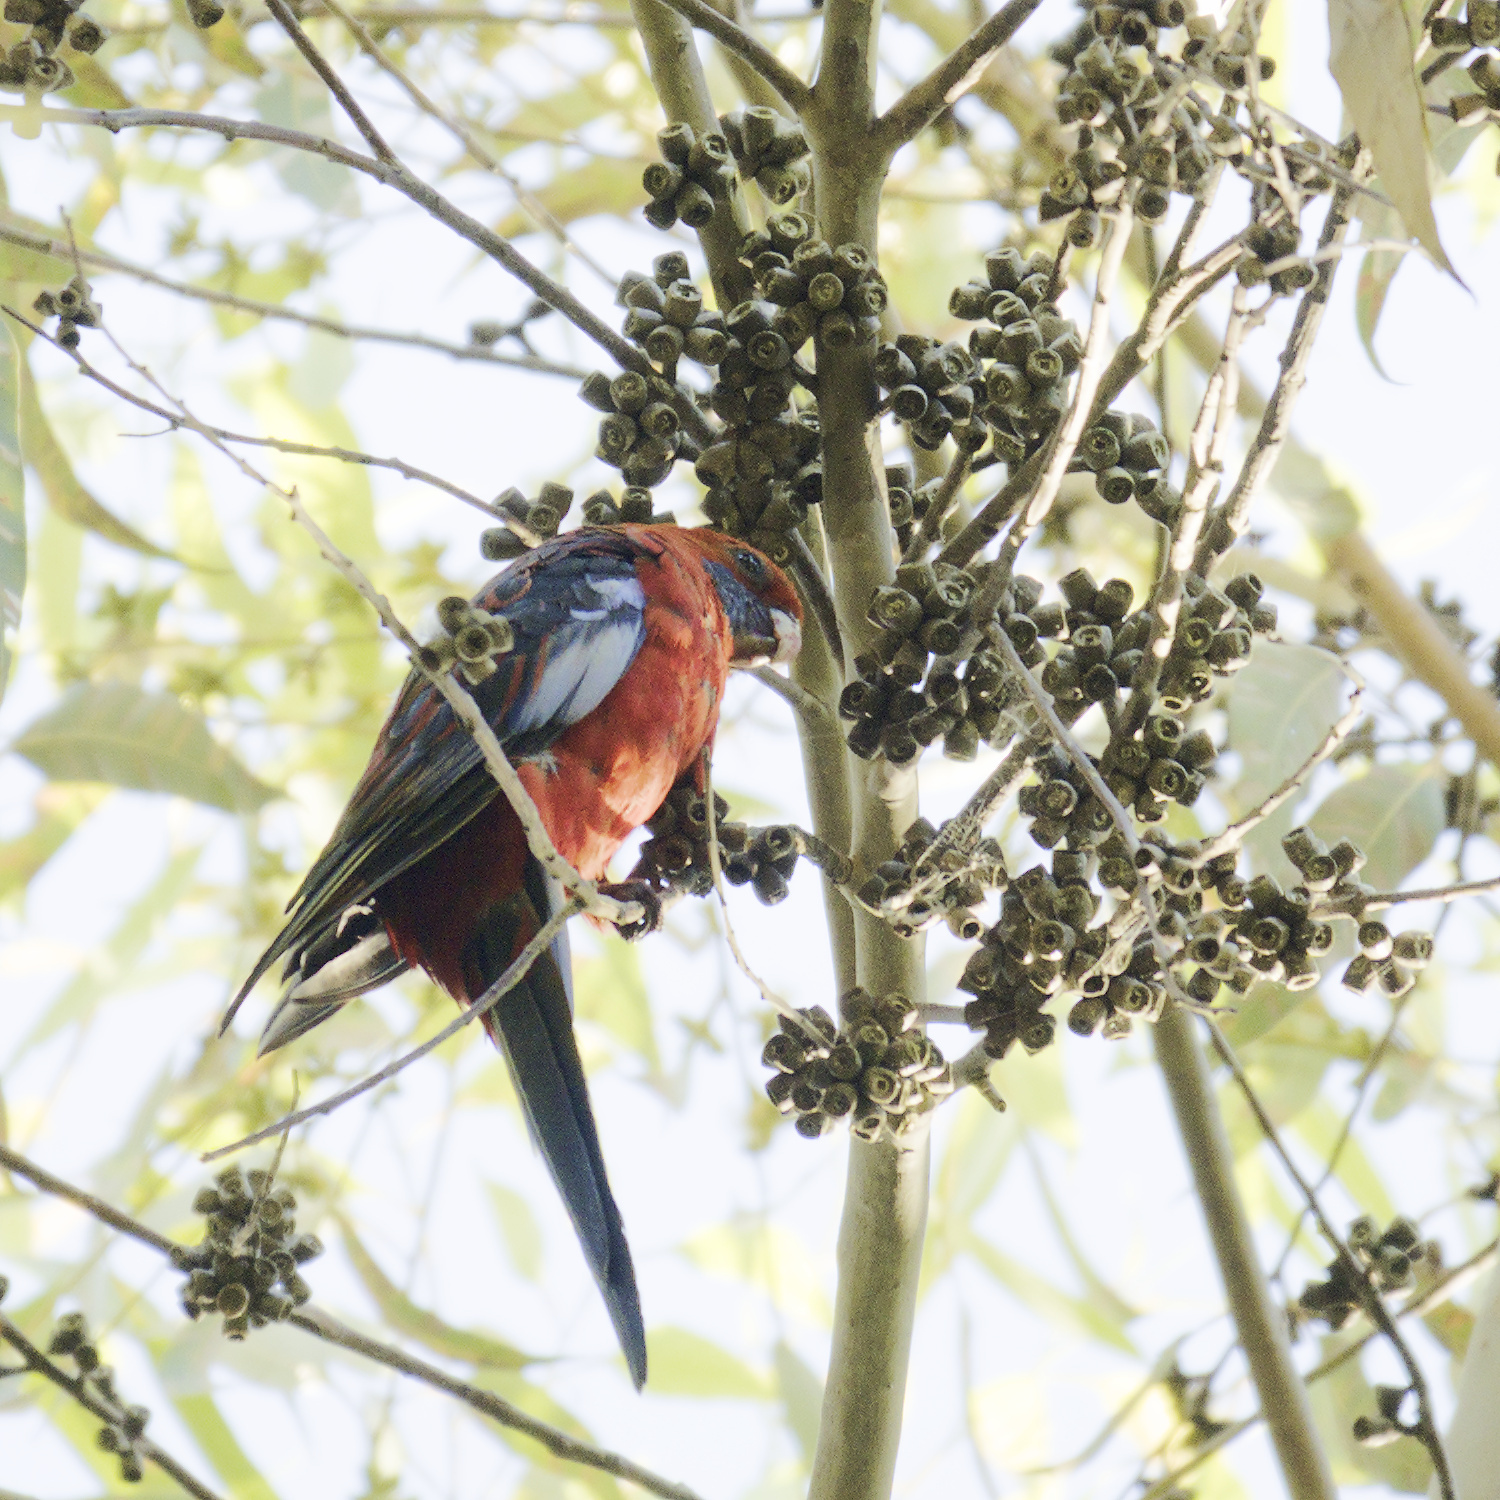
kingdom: Animalia
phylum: Chordata
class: Aves
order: Psittaciformes
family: Psittacidae
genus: Platycercus
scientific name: Platycercus elegans
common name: Crimson rosella
